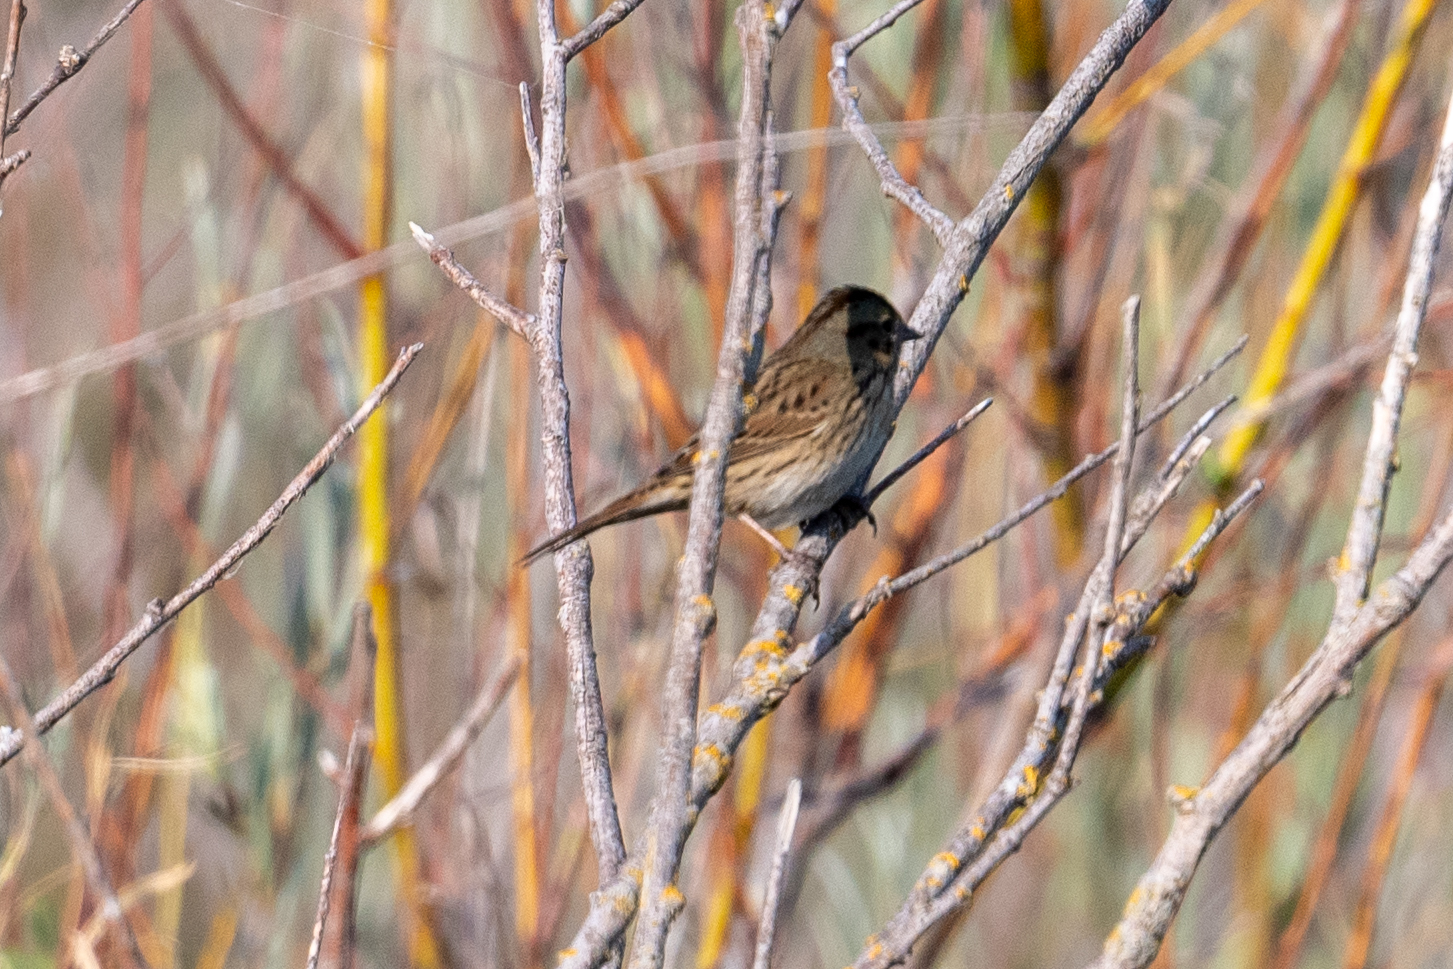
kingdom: Animalia
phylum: Chordata
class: Aves
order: Passeriformes
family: Passerellidae
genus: Melospiza
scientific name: Melospiza lincolnii
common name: Lincoln's sparrow
